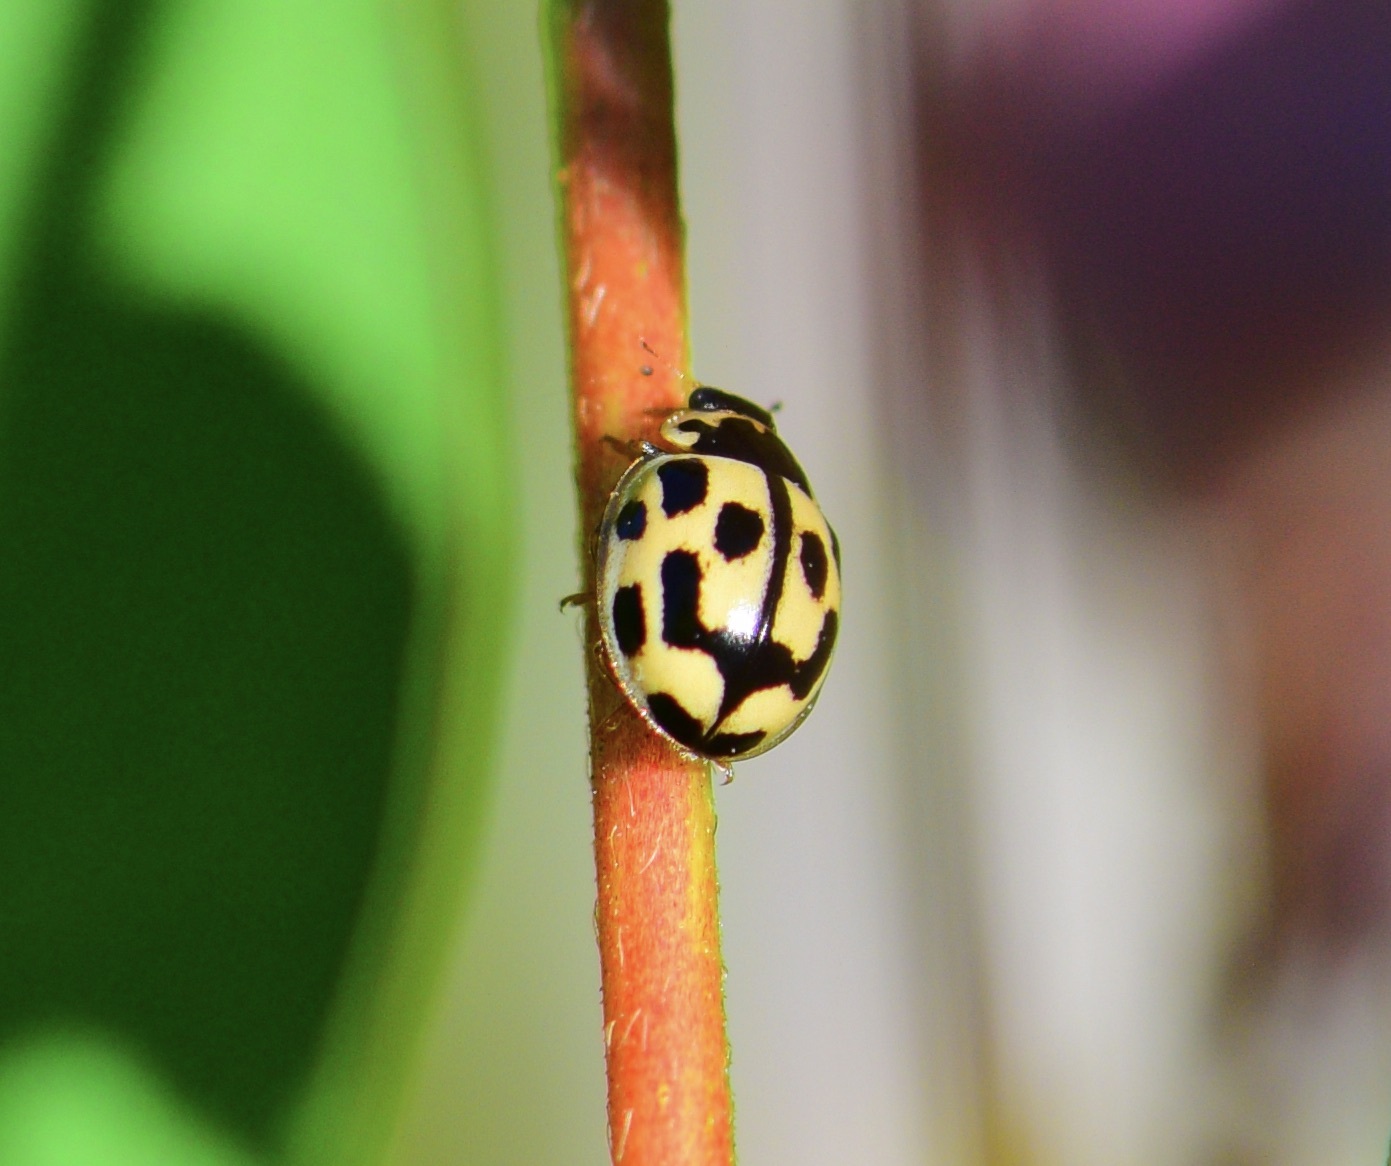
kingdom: Animalia
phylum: Arthropoda
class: Insecta
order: Coleoptera
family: Coccinellidae
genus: Propylaea
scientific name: Propylaea quatuordecimpunctata
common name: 14-spotted ladybird beetle
